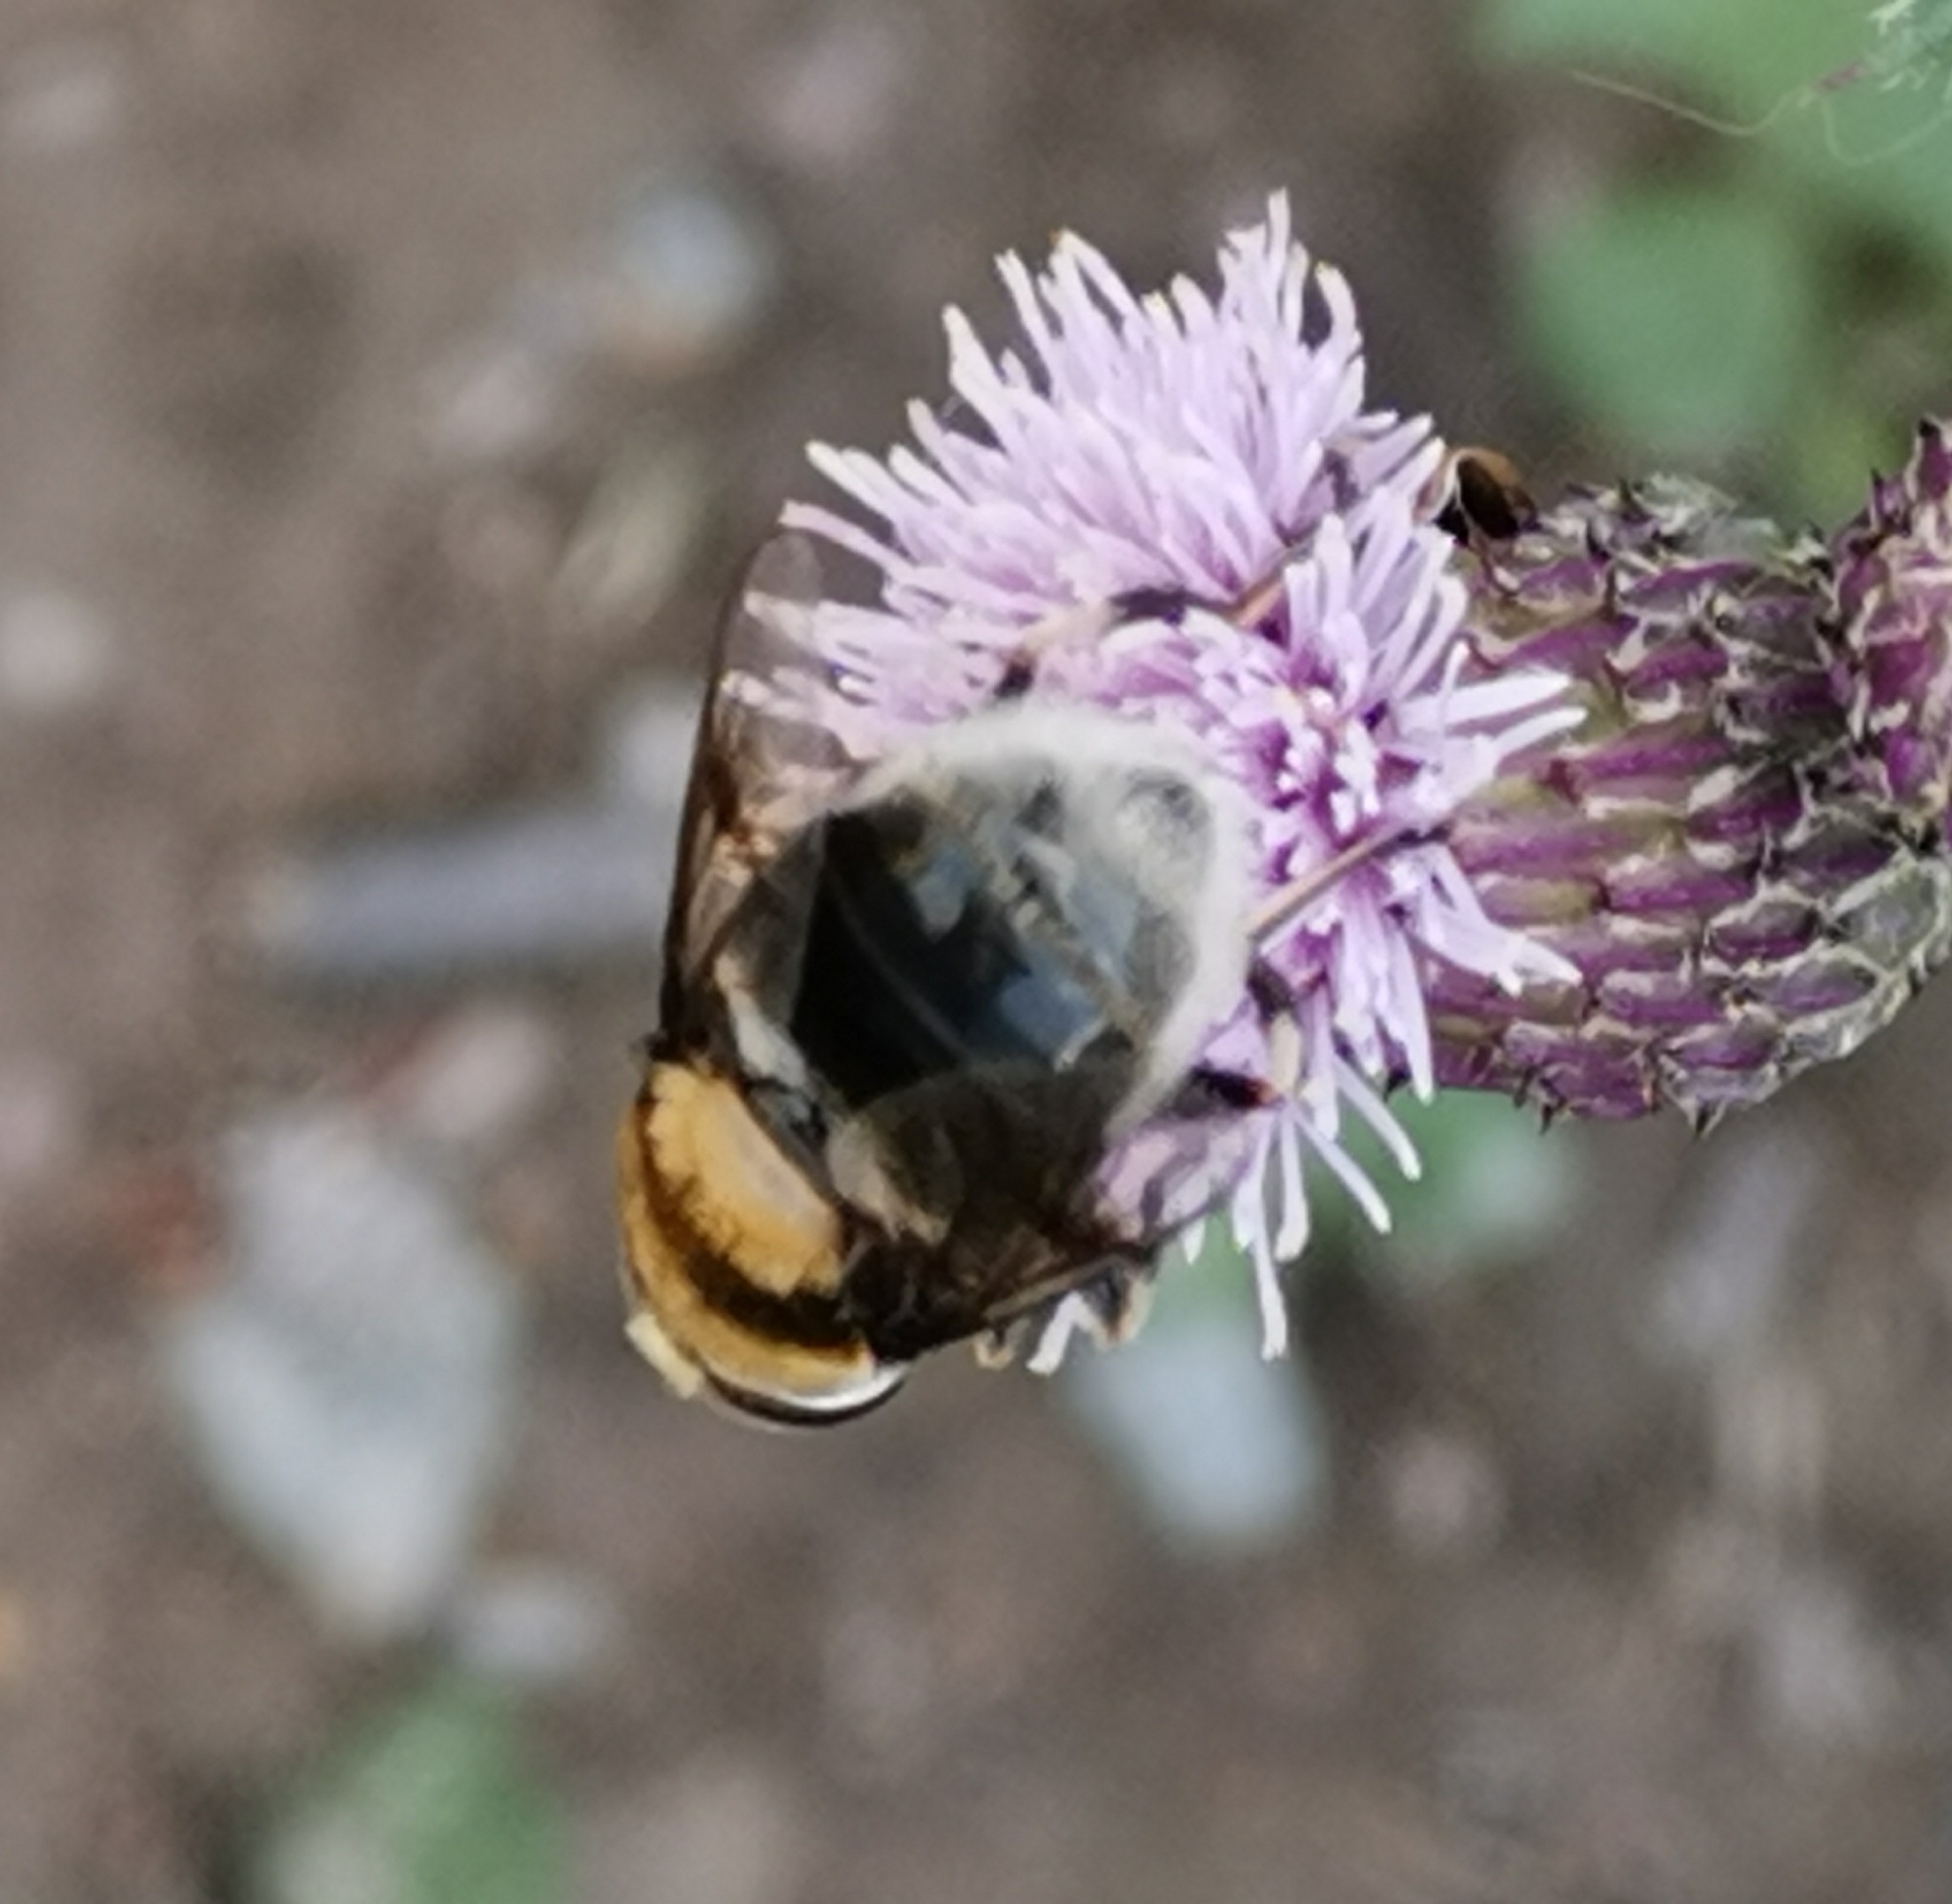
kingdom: Animalia
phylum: Arthropoda
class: Insecta
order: Diptera
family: Syrphidae
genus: Eristalis
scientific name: Eristalis intricaria
